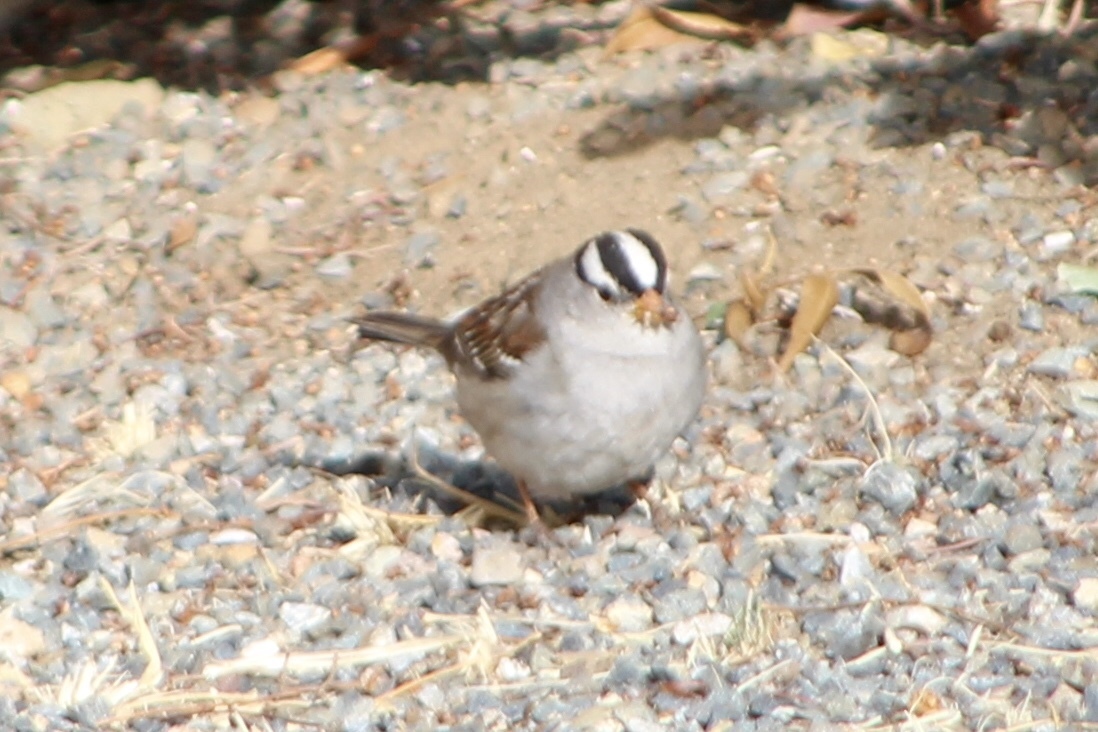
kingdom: Animalia
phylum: Chordata
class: Aves
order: Passeriformes
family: Passerellidae
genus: Zonotrichia
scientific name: Zonotrichia leucophrys
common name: White-crowned sparrow
